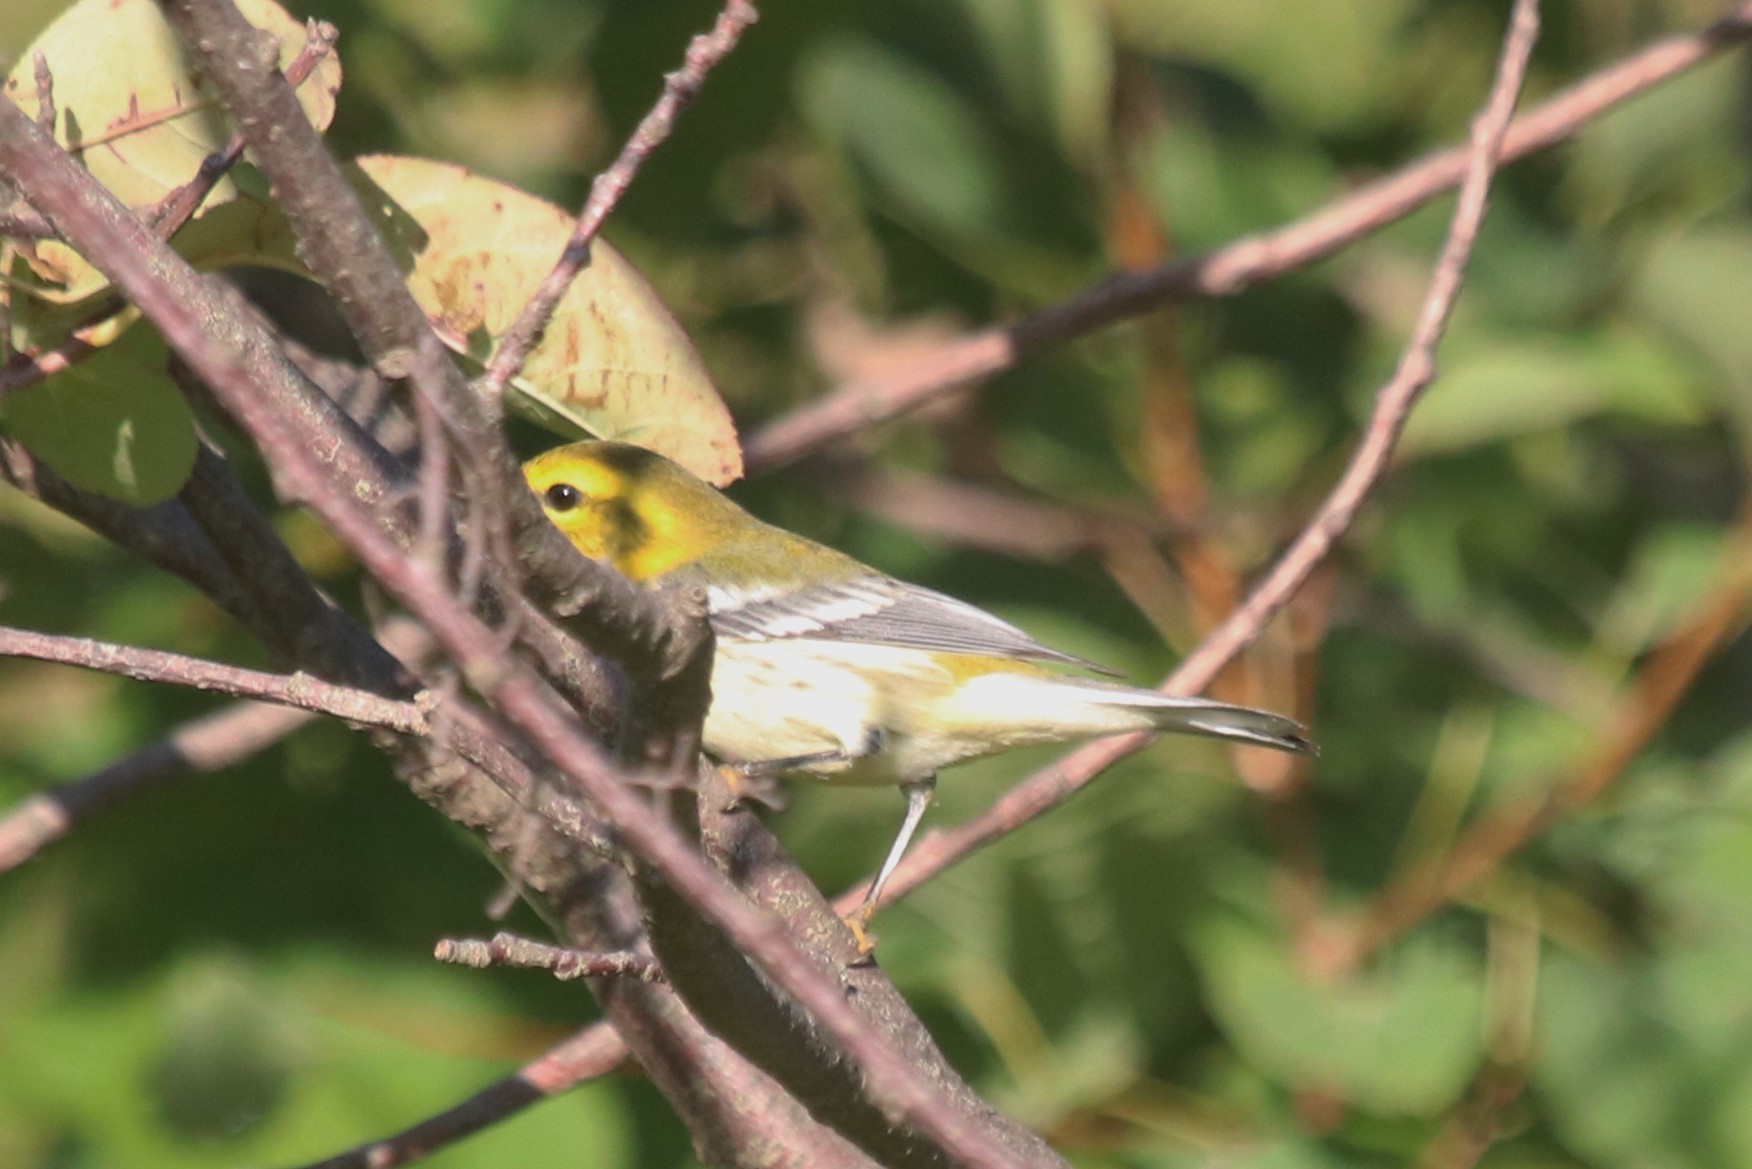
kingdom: Animalia
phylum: Chordata
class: Aves
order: Passeriformes
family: Parulidae
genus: Setophaga
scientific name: Setophaga virens
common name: Black-throated green warbler
